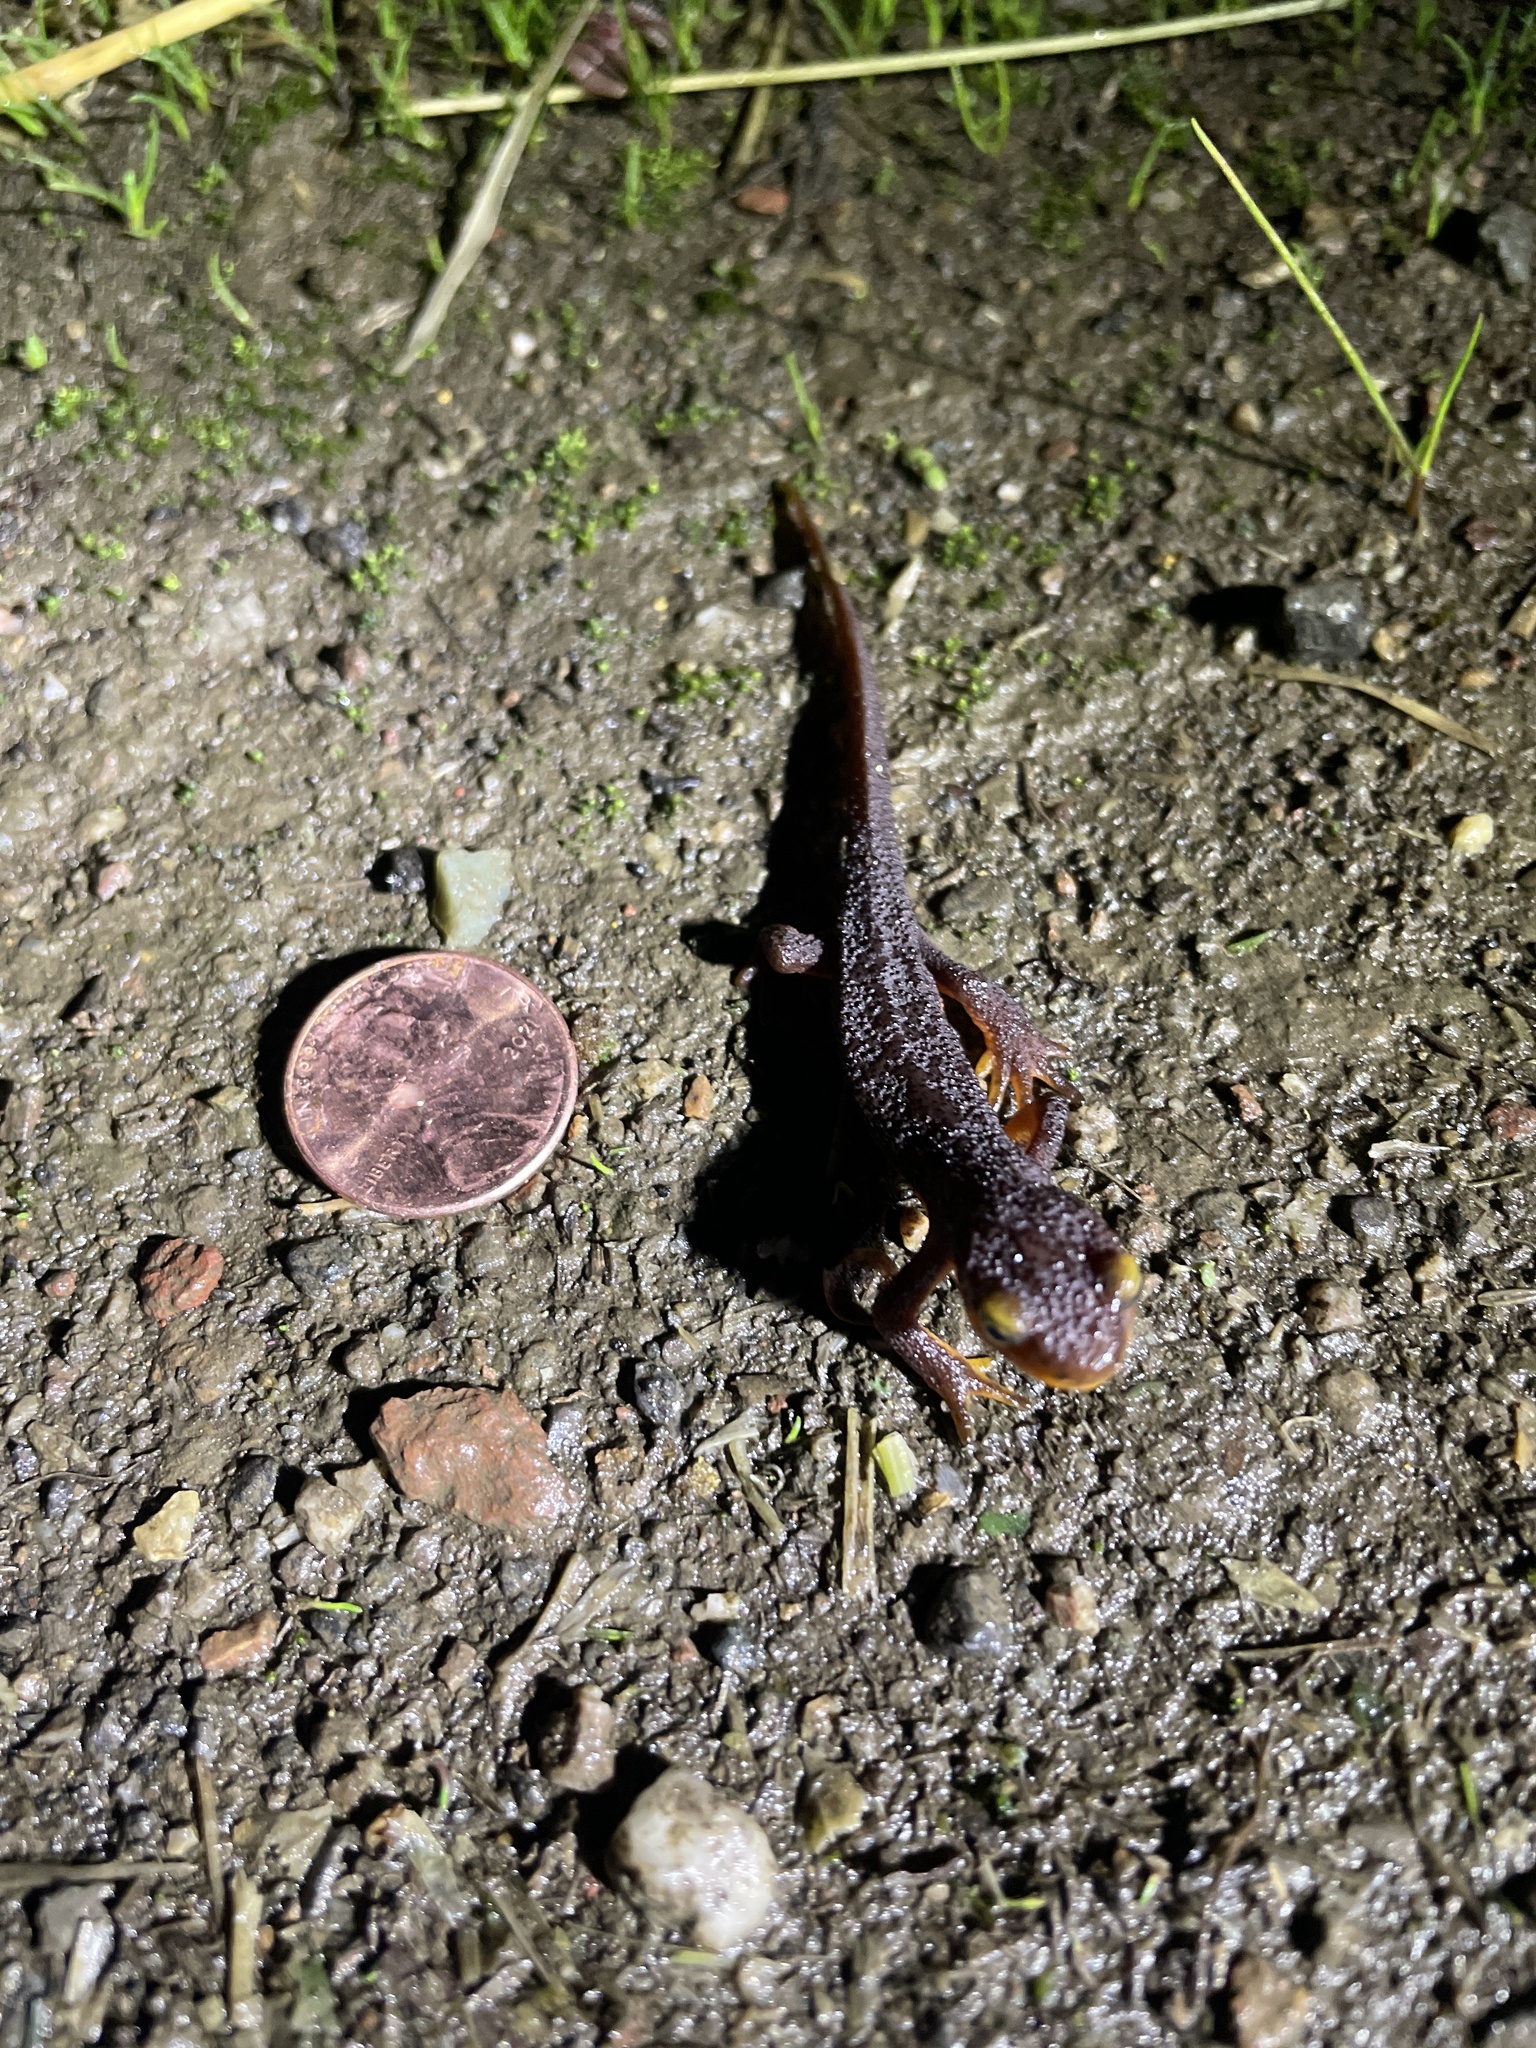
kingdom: Animalia
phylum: Chordata
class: Amphibia
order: Caudata
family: Salamandridae
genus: Taricha
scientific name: Taricha torosa
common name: California newt
